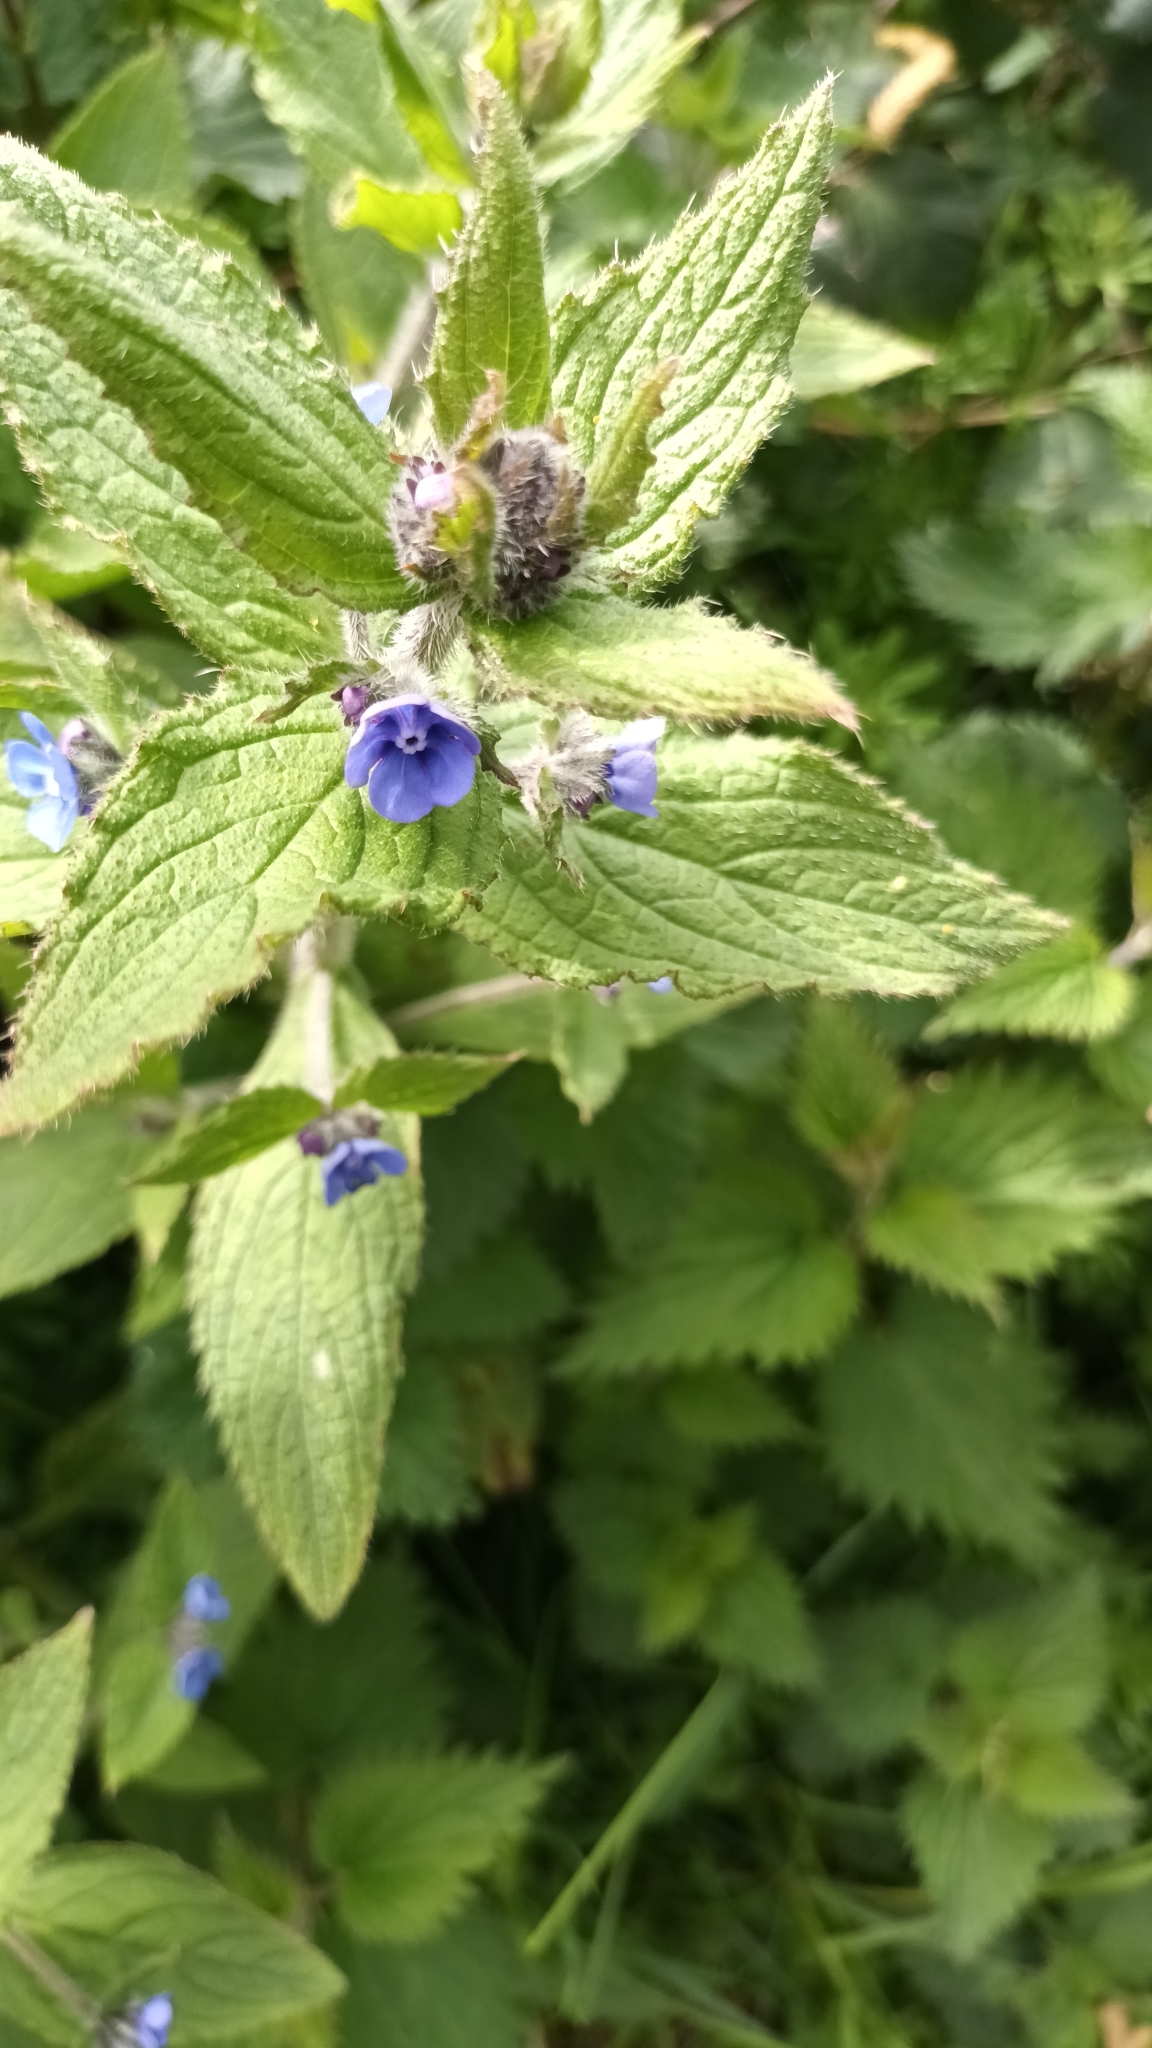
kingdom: Plantae
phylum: Tracheophyta
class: Magnoliopsida
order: Boraginales
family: Boraginaceae
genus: Pentaglottis
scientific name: Pentaglottis sempervirens
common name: Green alkanet
